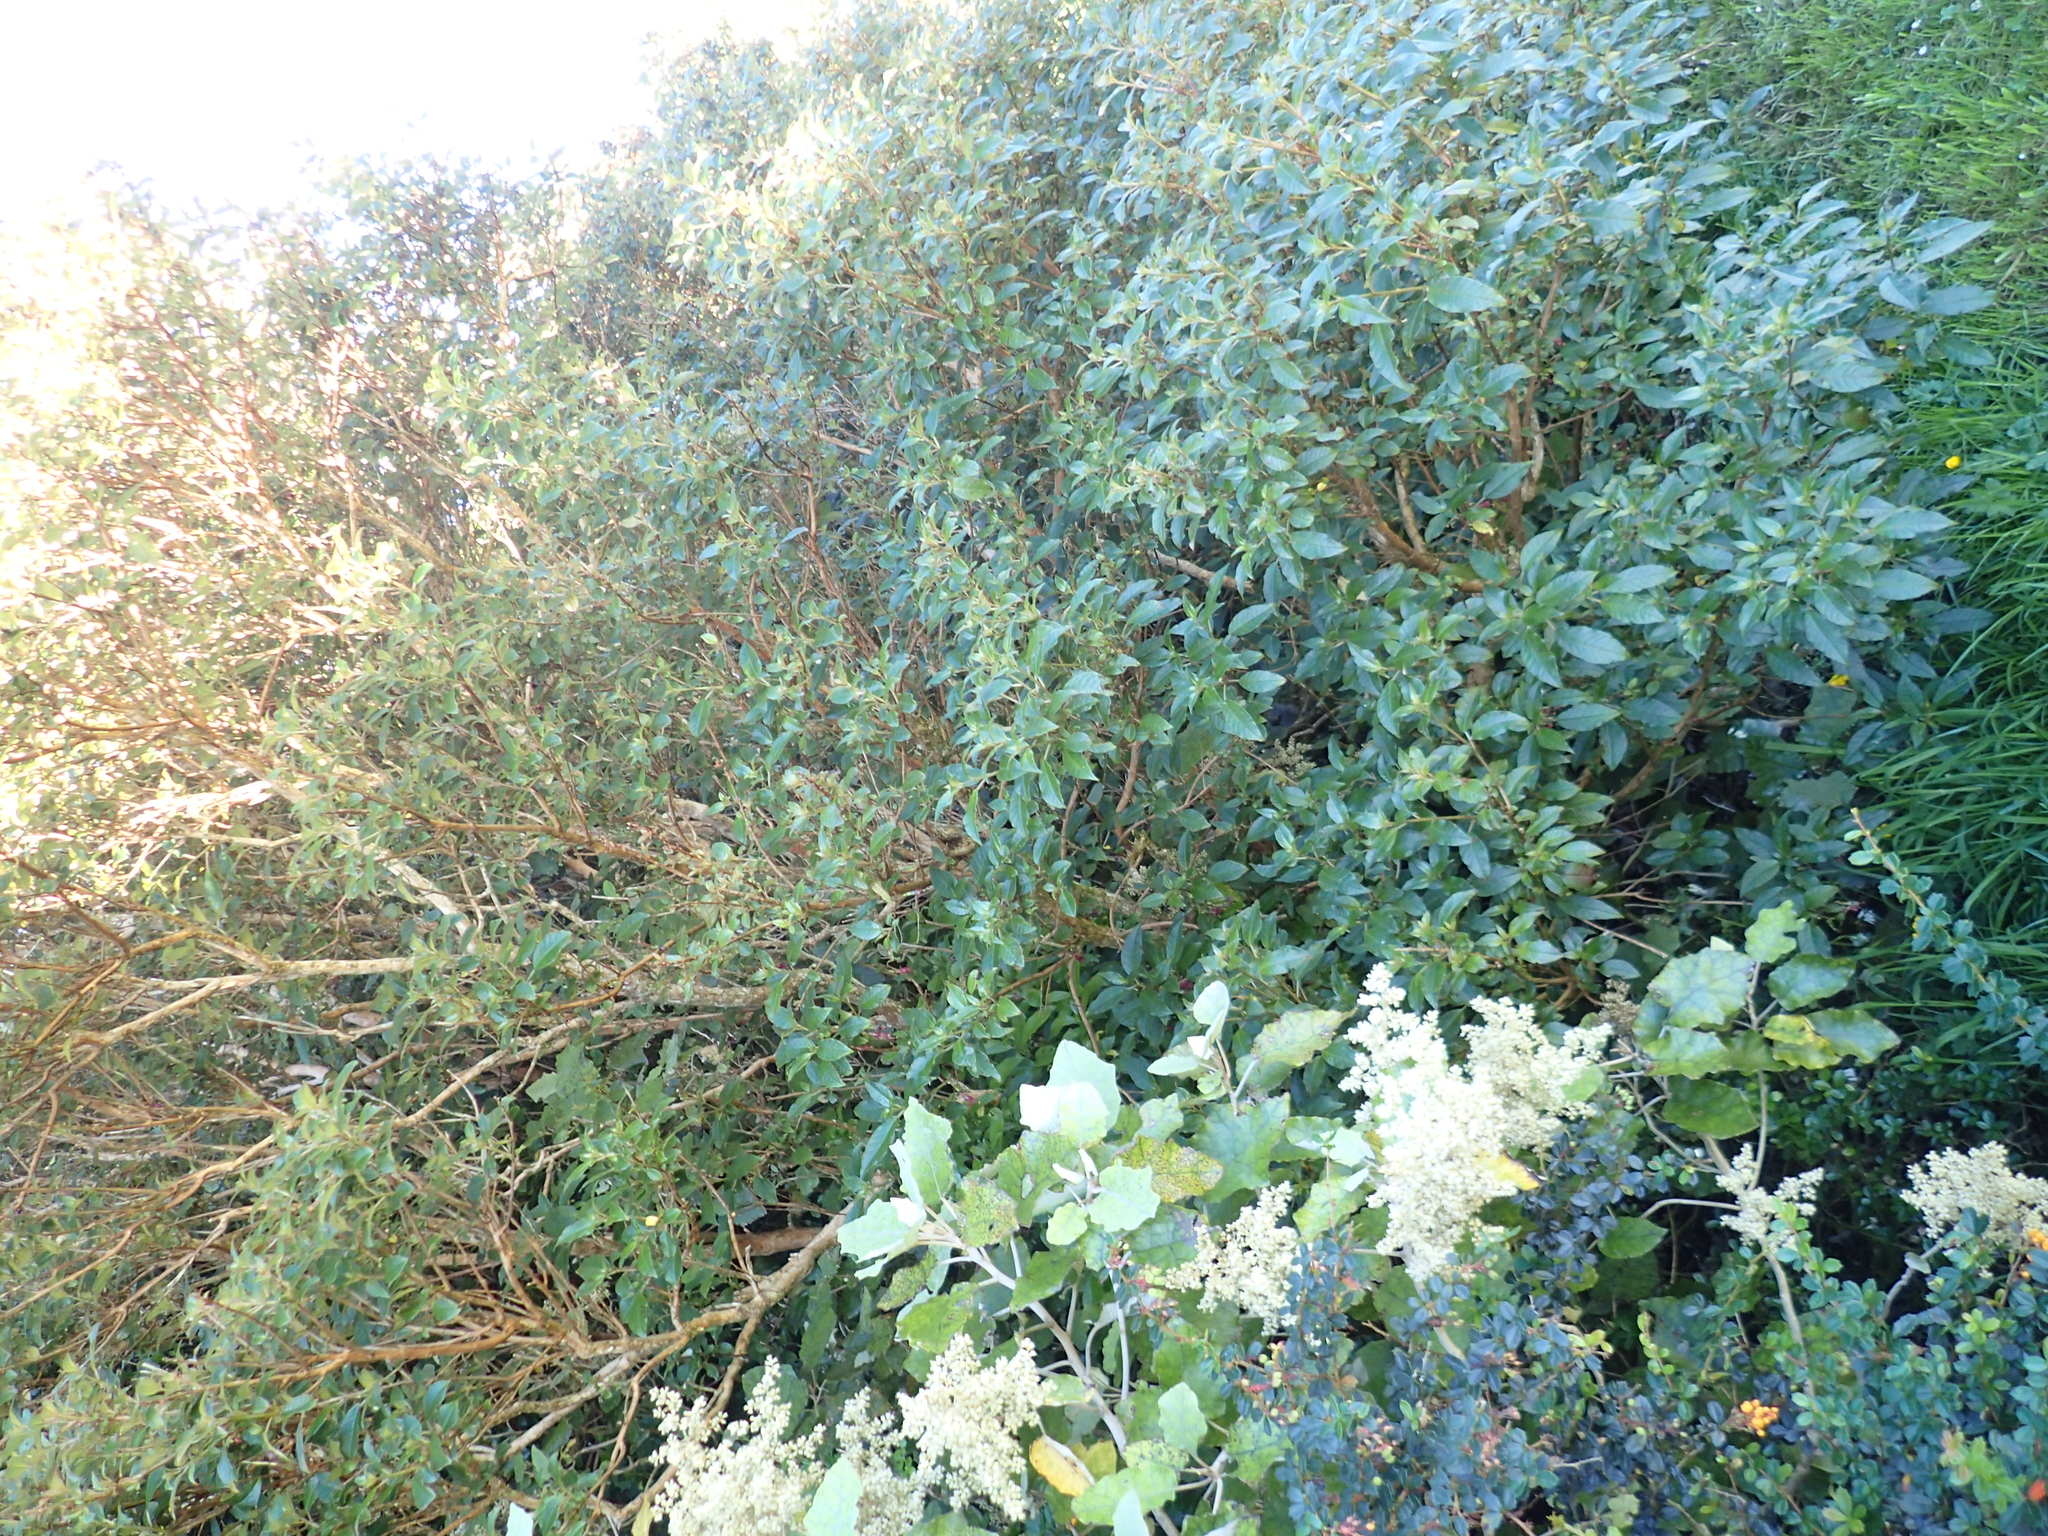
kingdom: Plantae
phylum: Tracheophyta
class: Magnoliopsida
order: Myrtales
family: Onagraceae
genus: Fuchsia
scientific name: Fuchsia excorticata
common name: Tree fuchsia
